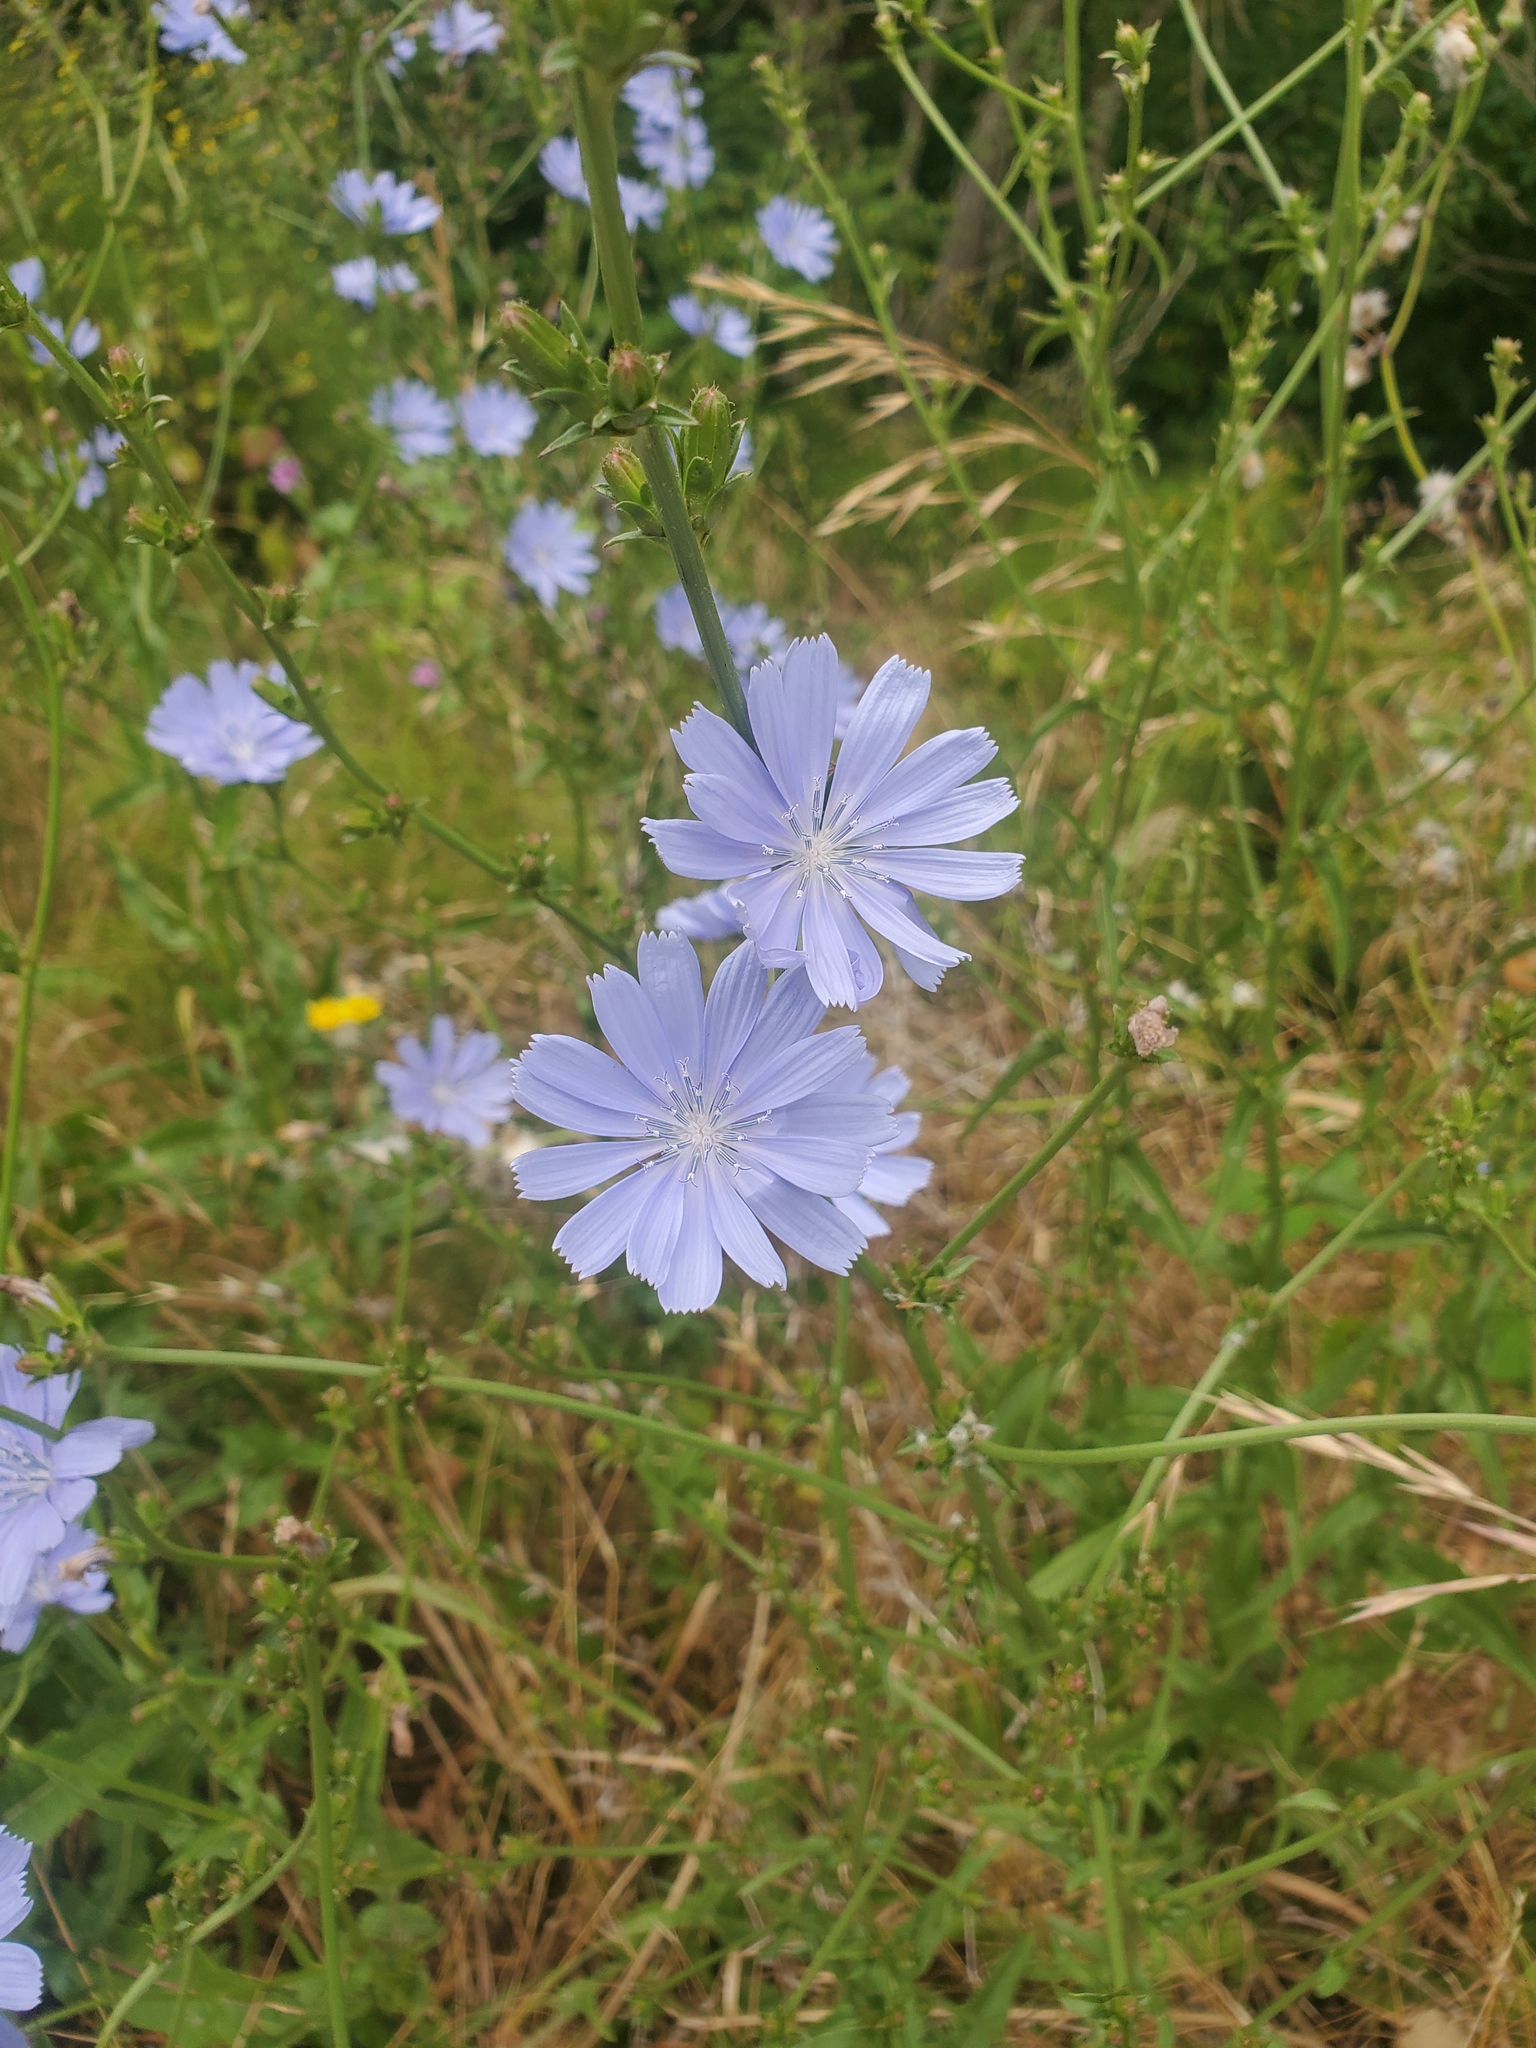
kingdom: Plantae
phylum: Tracheophyta
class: Magnoliopsida
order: Asterales
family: Asteraceae
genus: Cichorium
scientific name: Cichorium intybus
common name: Chicory
